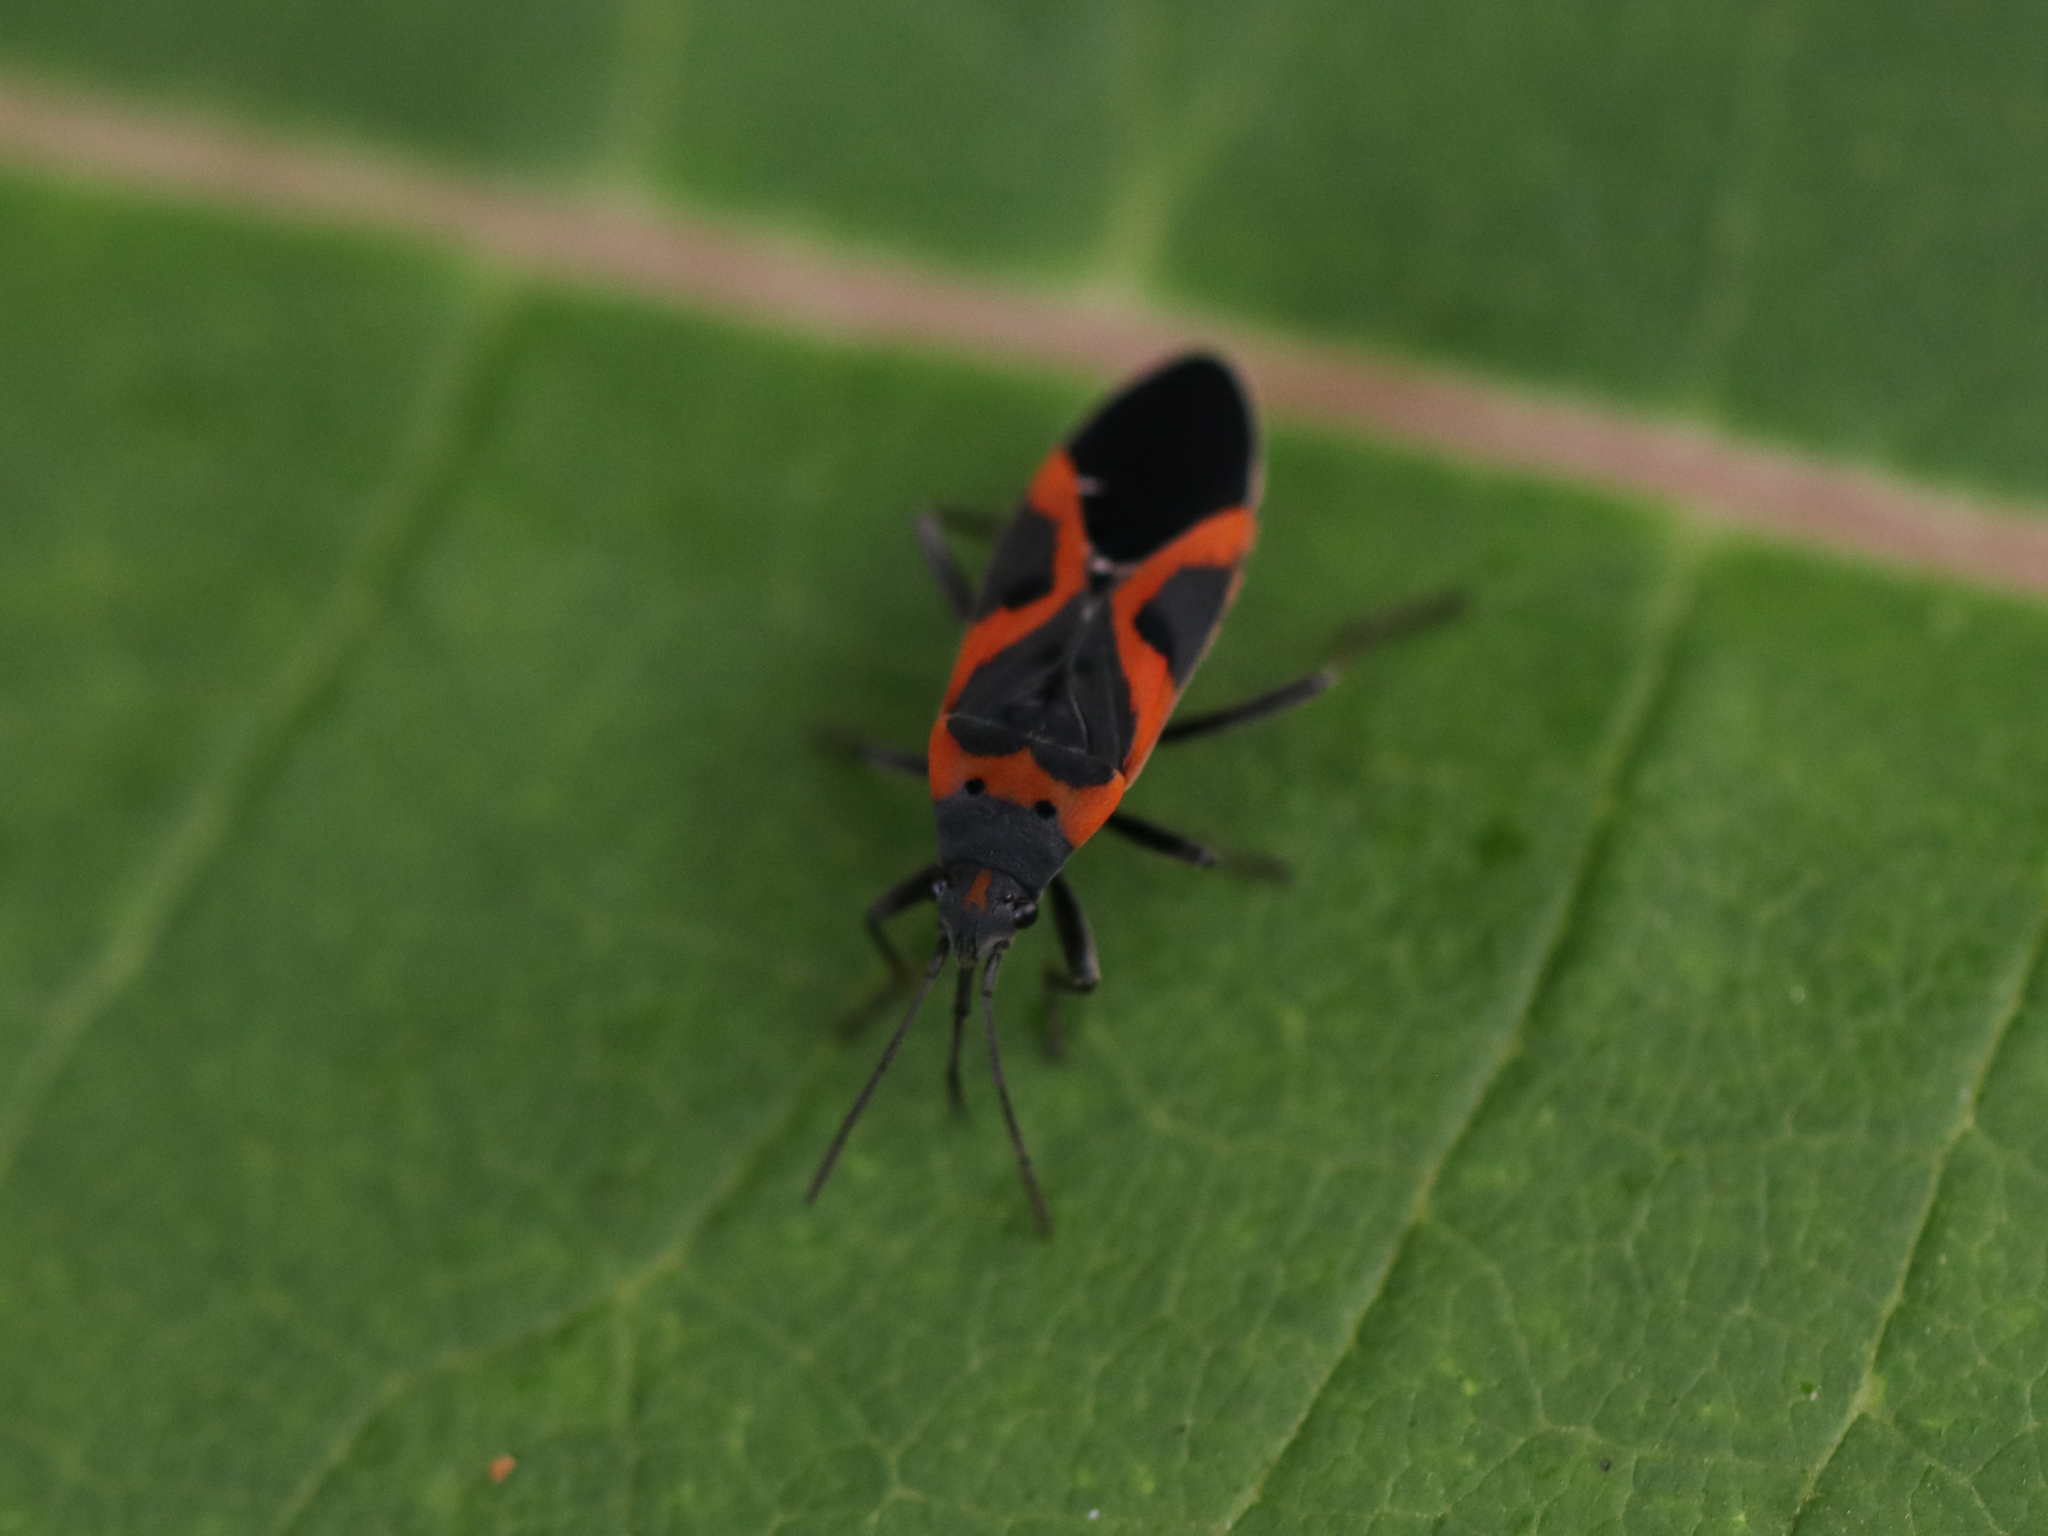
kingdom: Animalia
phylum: Arthropoda
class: Insecta
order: Hemiptera
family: Lygaeidae
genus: Lygaeus
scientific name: Lygaeus kalmii
